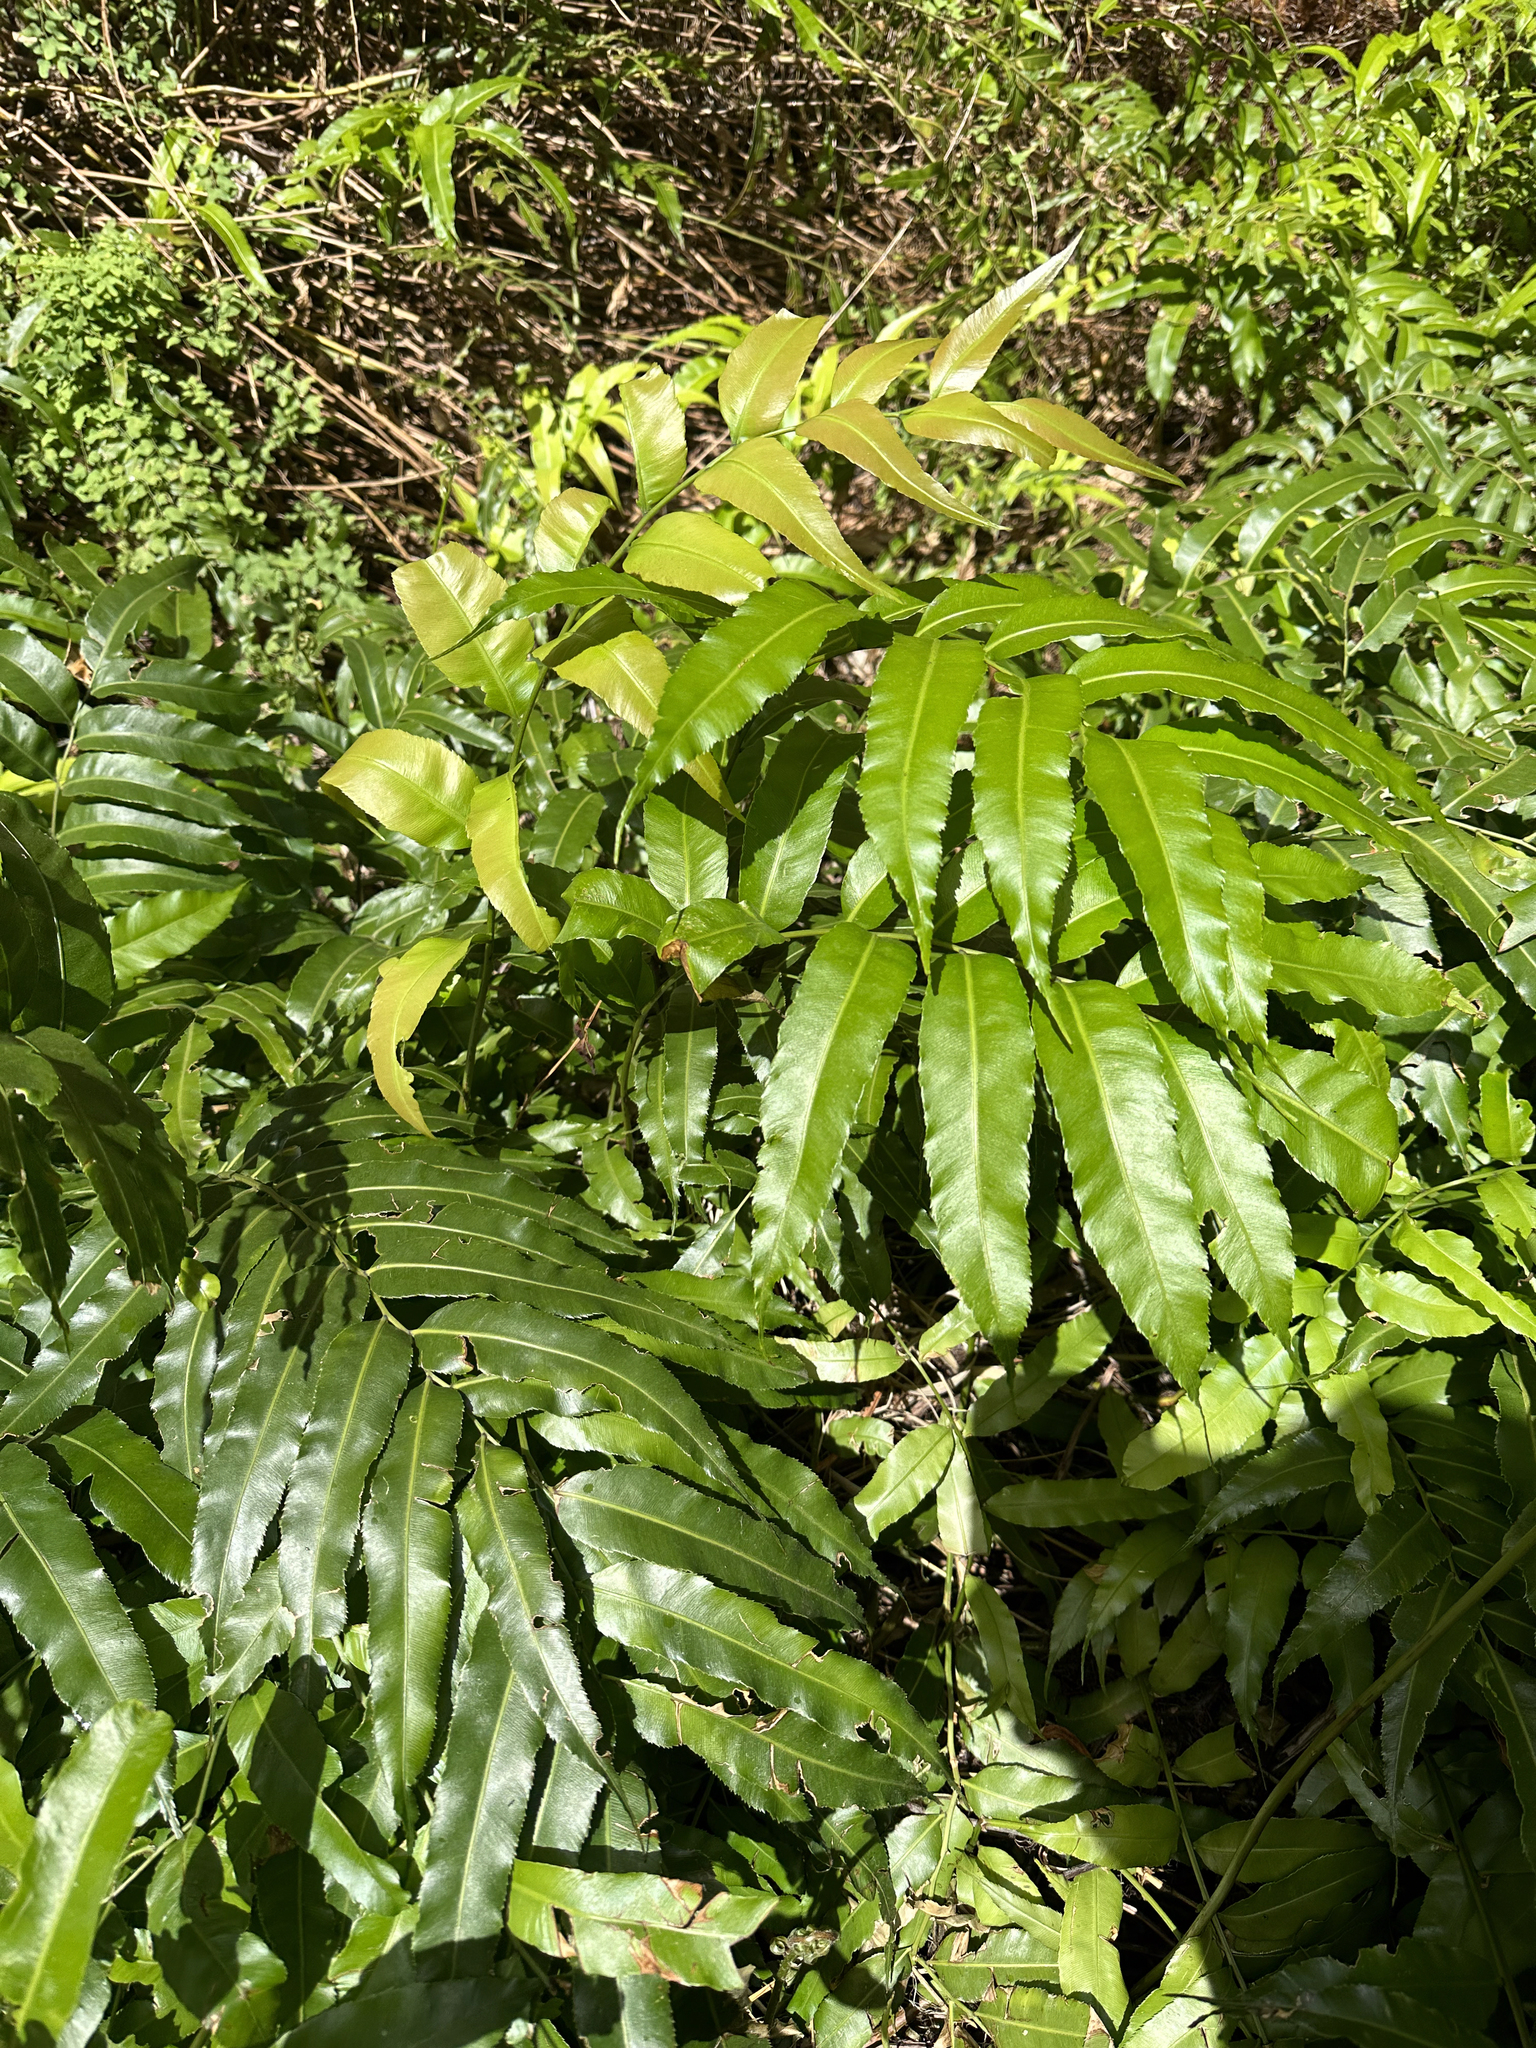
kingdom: Plantae
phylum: Tracheophyta
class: Polypodiopsida
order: Polypodiales
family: Blechnaceae
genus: Stenochlaena
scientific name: Stenochlaena palustris
